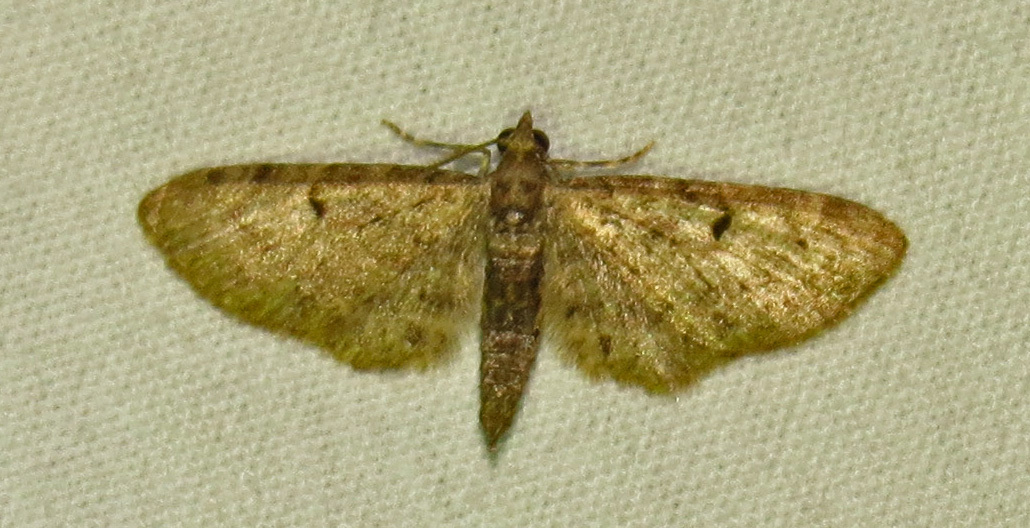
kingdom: Animalia
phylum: Arthropoda
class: Insecta
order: Lepidoptera
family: Geometridae
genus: Eupithecia
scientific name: Eupithecia miserulata
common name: Common eupithecia
